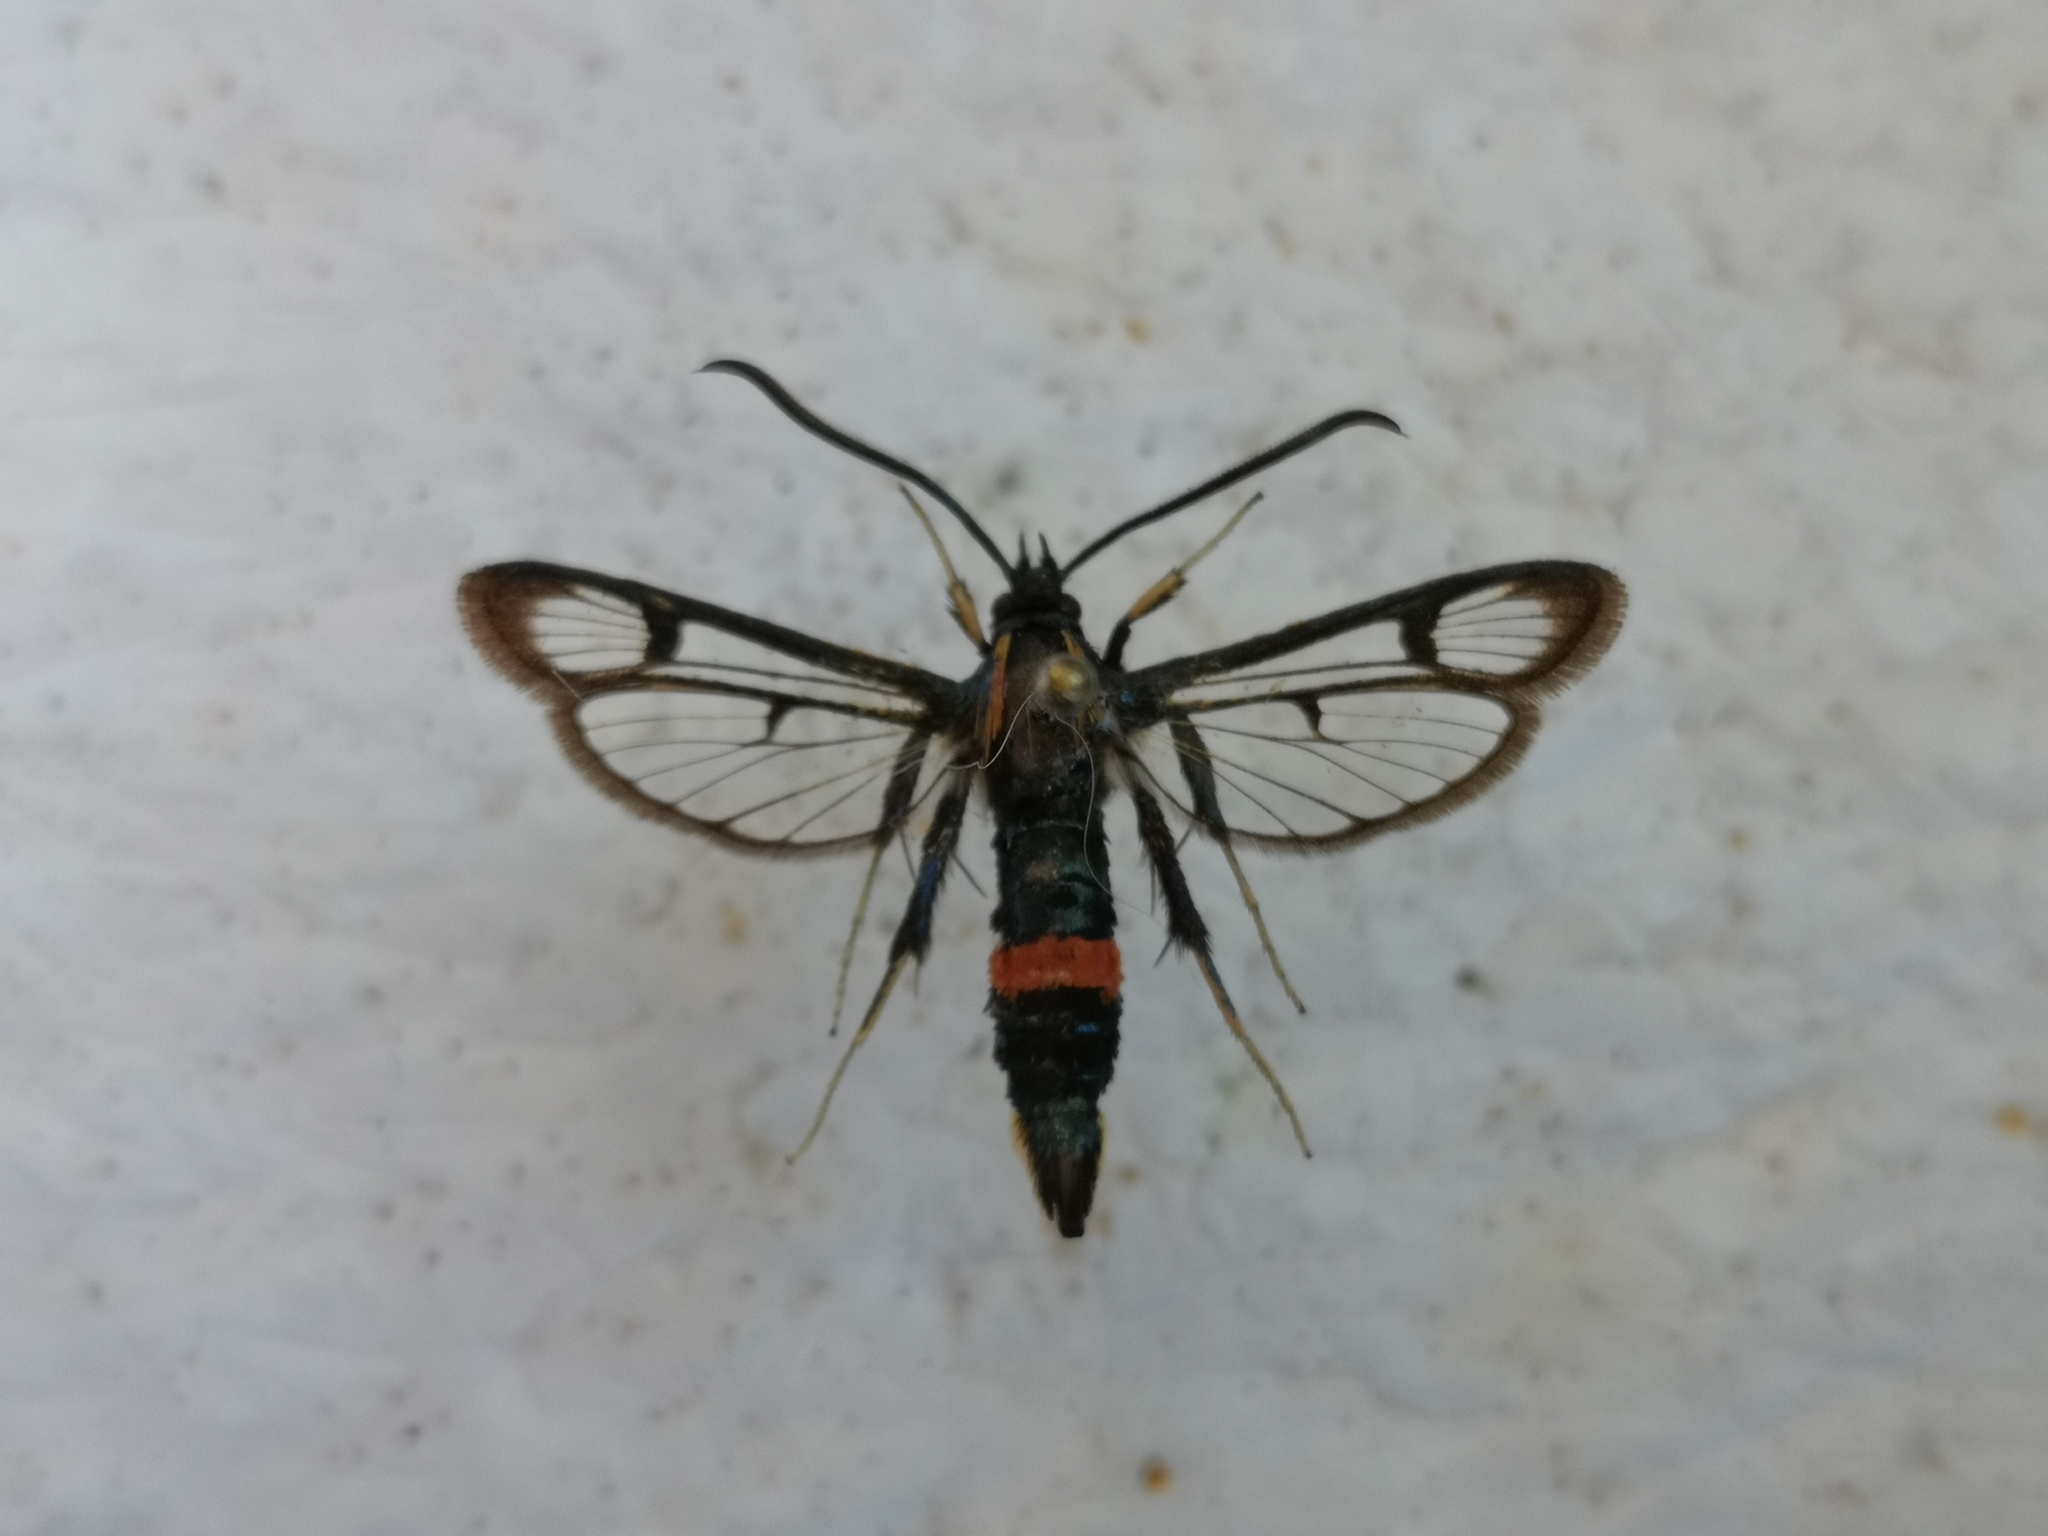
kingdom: Animalia
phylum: Arthropoda
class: Insecta
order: Lepidoptera
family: Sesiidae
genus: Synanthedon
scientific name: Synanthedon stomoxiformis
